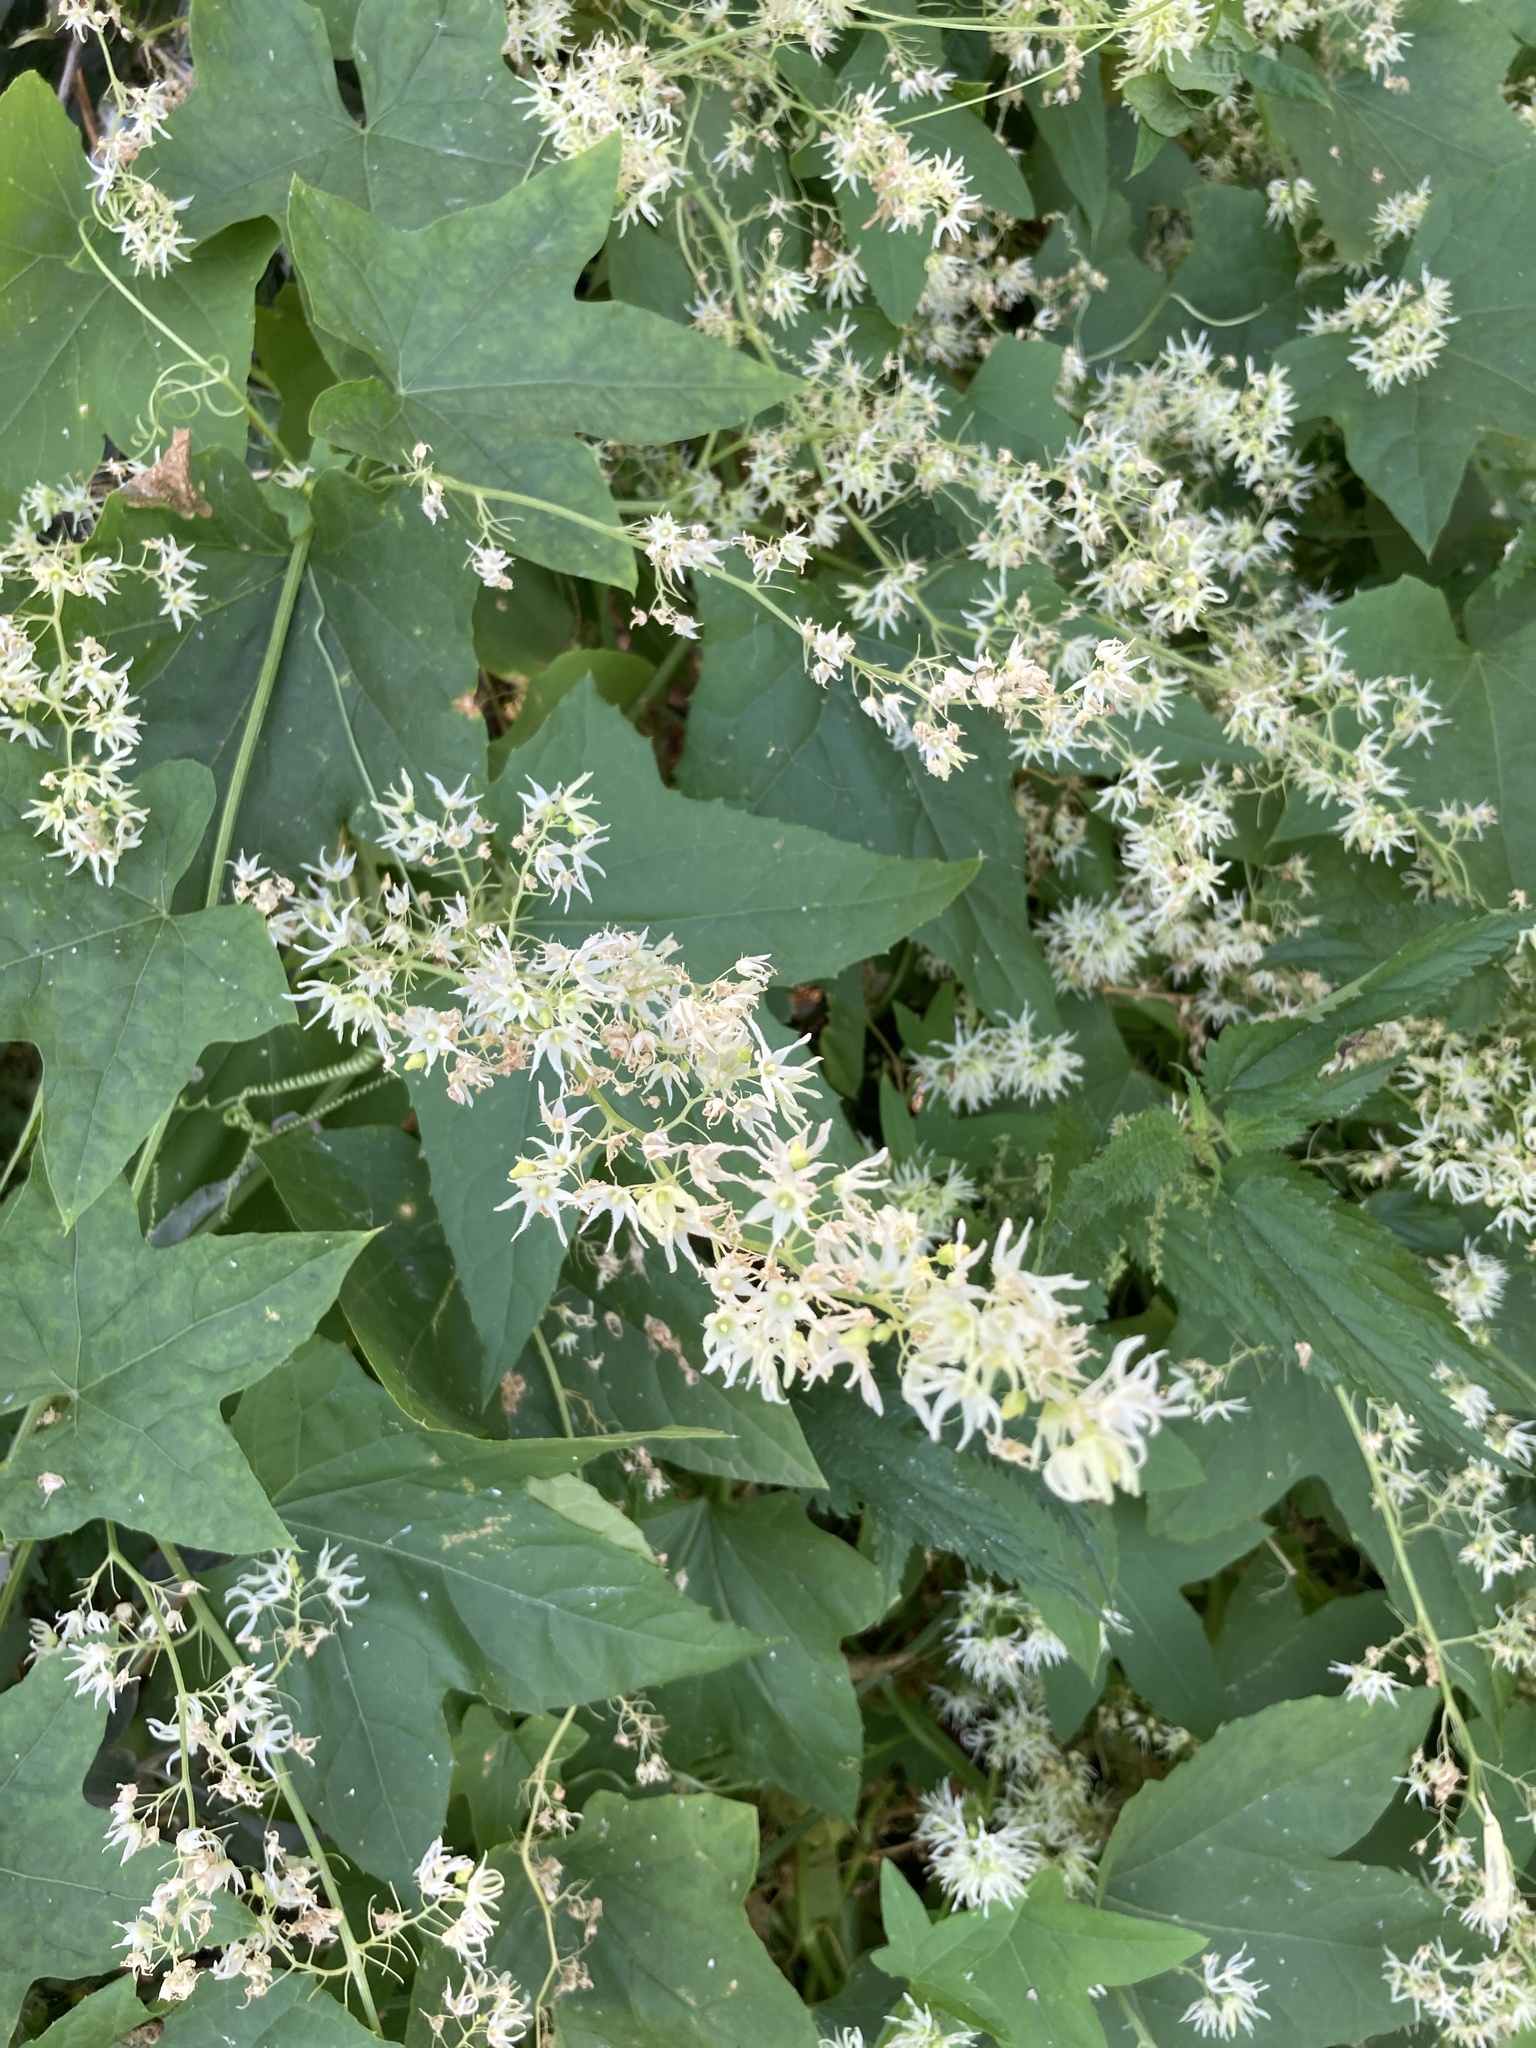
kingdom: Plantae
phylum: Tracheophyta
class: Magnoliopsida
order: Cucurbitales
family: Cucurbitaceae
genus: Echinocystis
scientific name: Echinocystis lobata
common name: Wild cucumber
